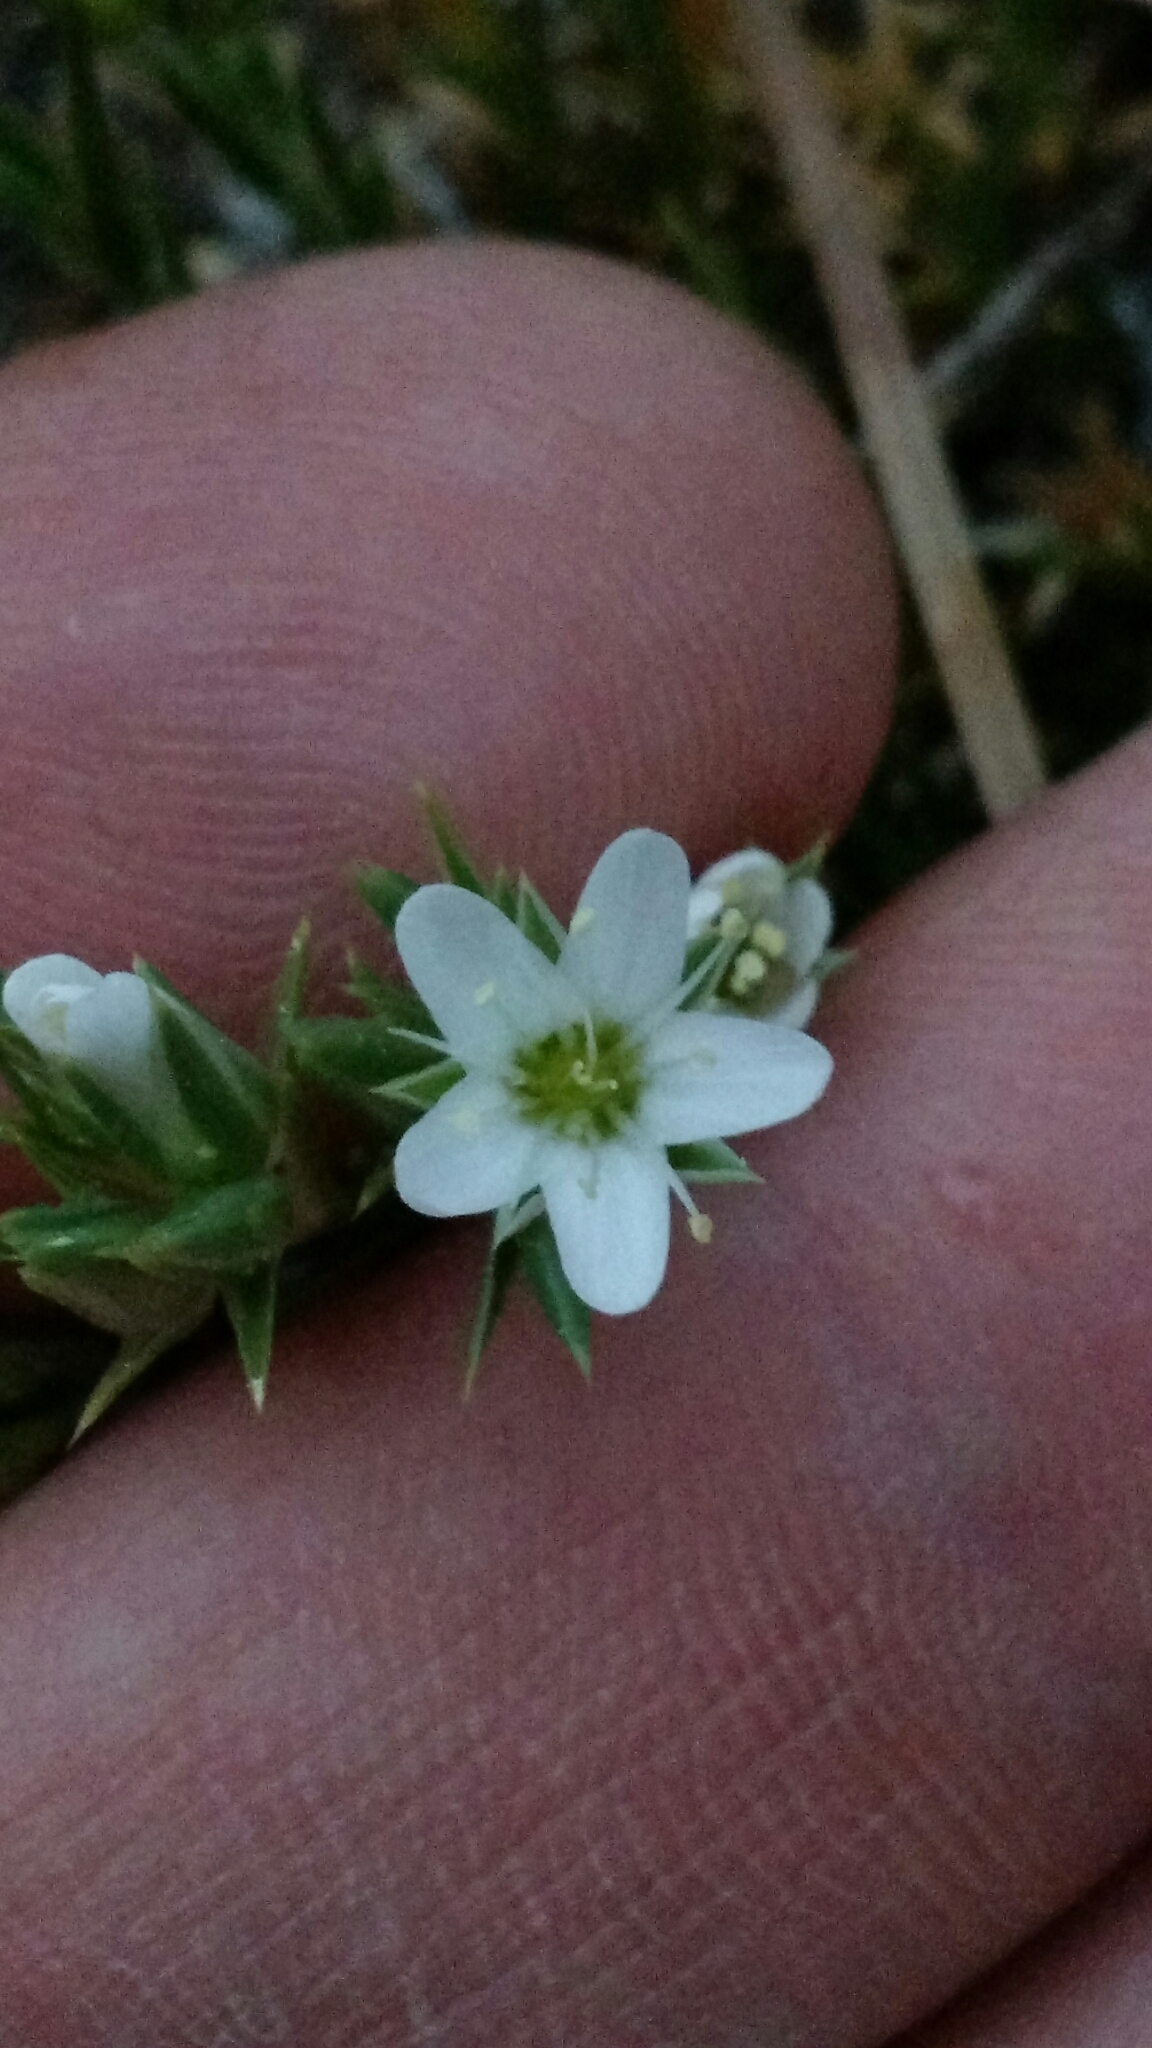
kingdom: Plantae
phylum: Tracheophyta
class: Magnoliopsida
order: Caryophyllales
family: Caryophyllaceae
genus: Eremogone
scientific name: Eremogone hookeri
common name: Hooker's sandwort
